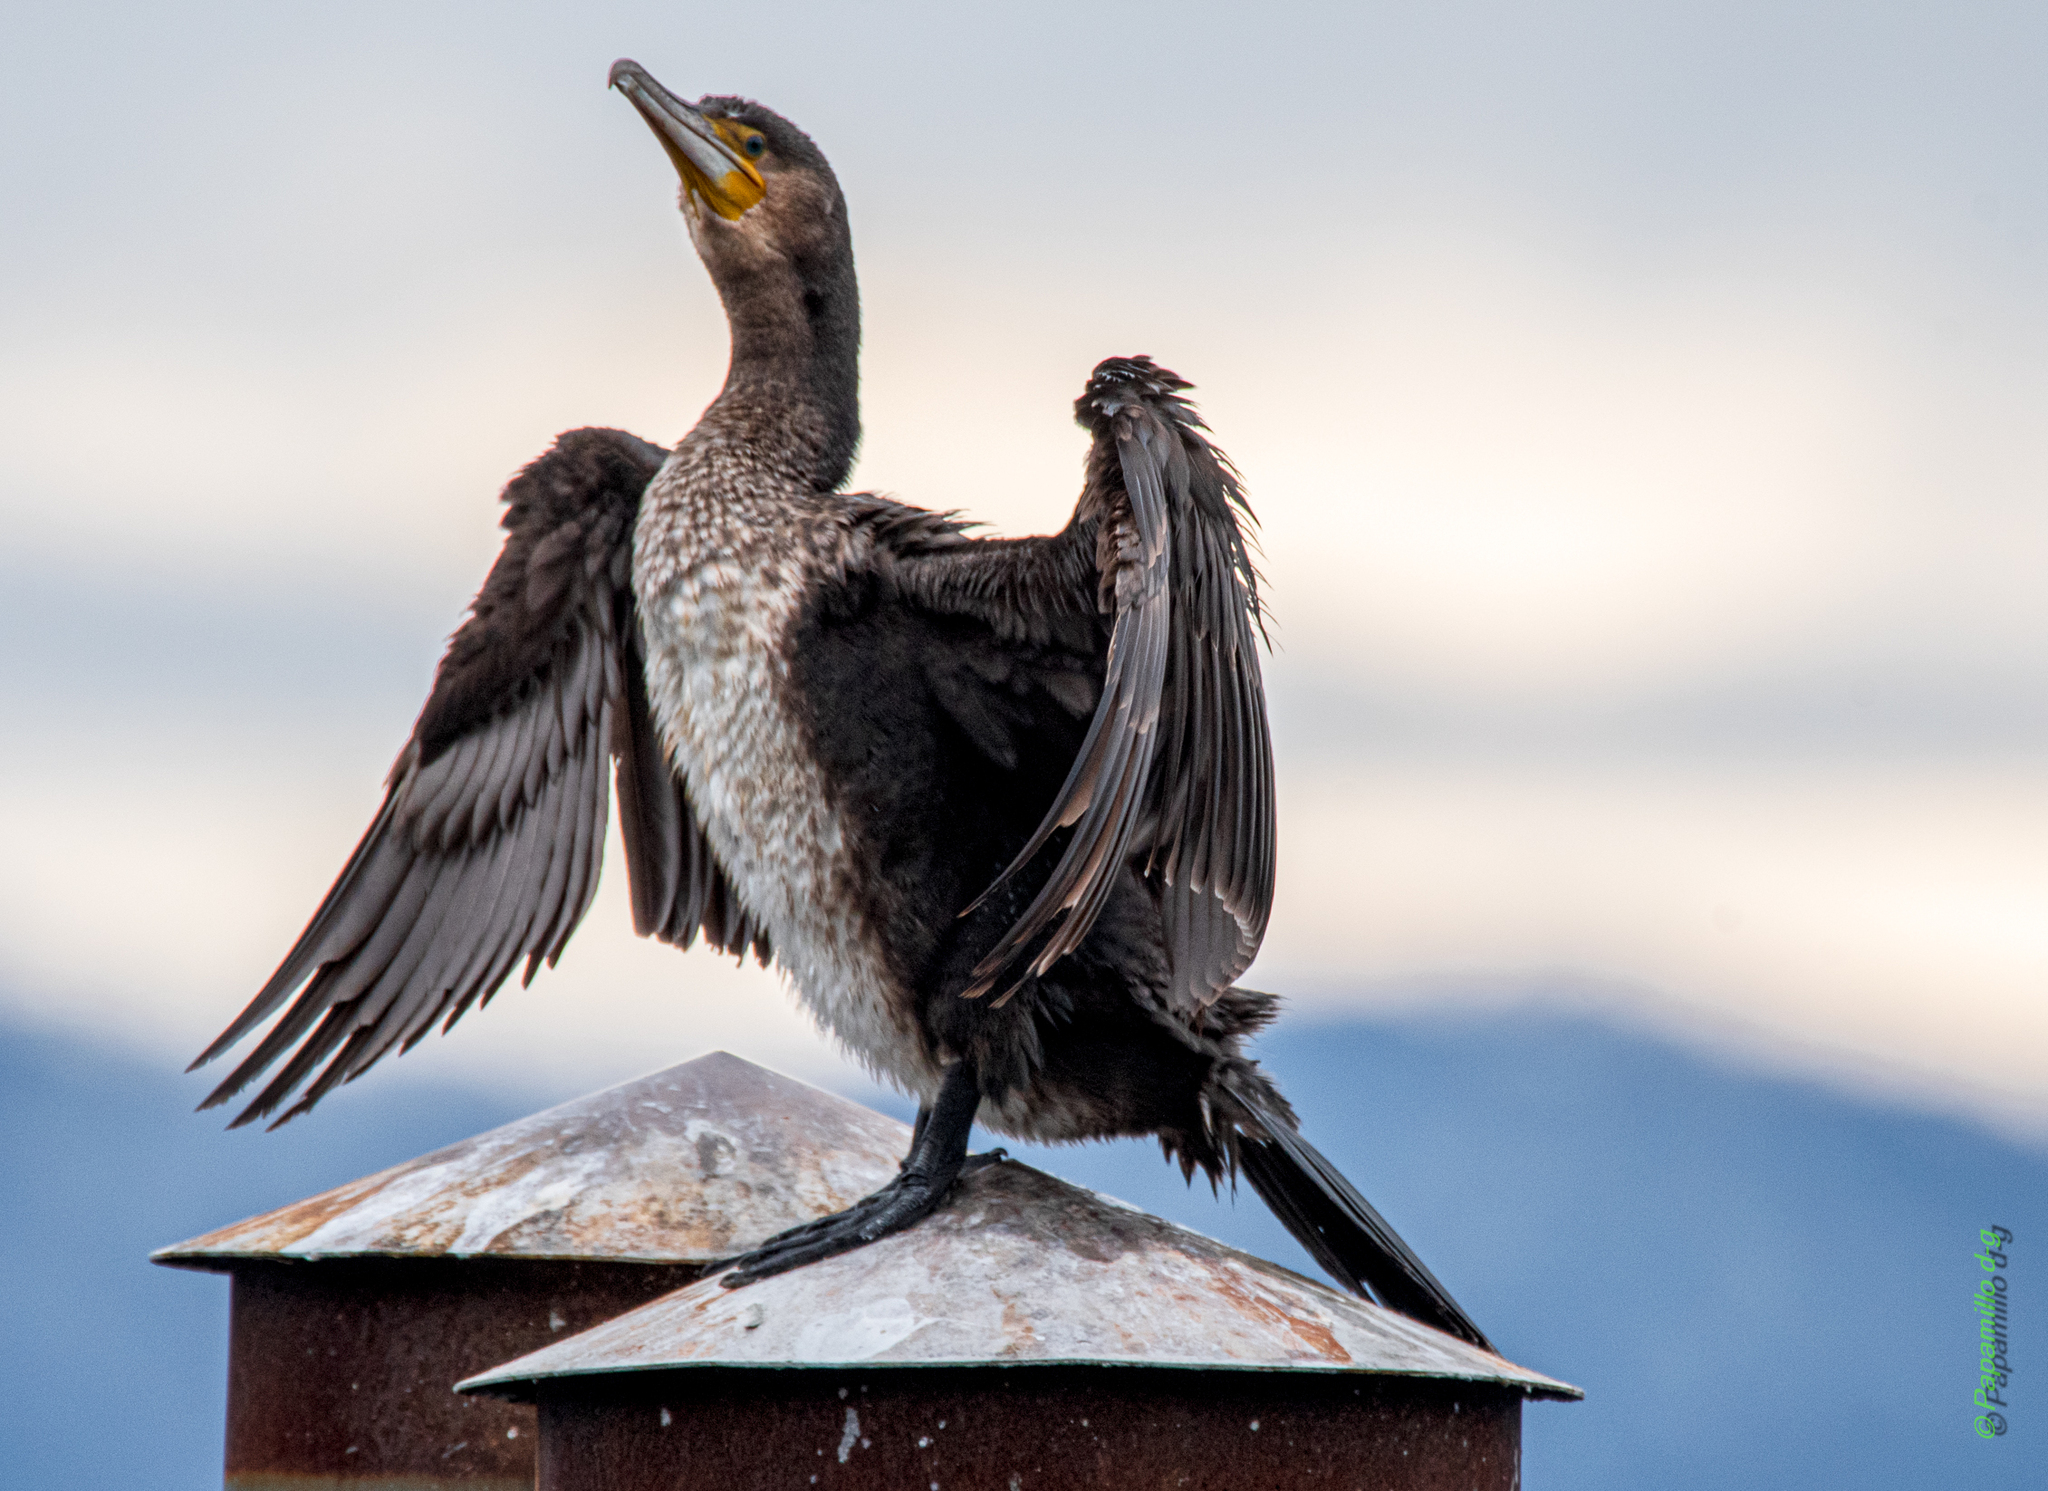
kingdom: Animalia
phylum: Chordata
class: Aves
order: Suliformes
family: Phalacrocoracidae
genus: Phalacrocorax
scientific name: Phalacrocorax carbo
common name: Great cormorant
